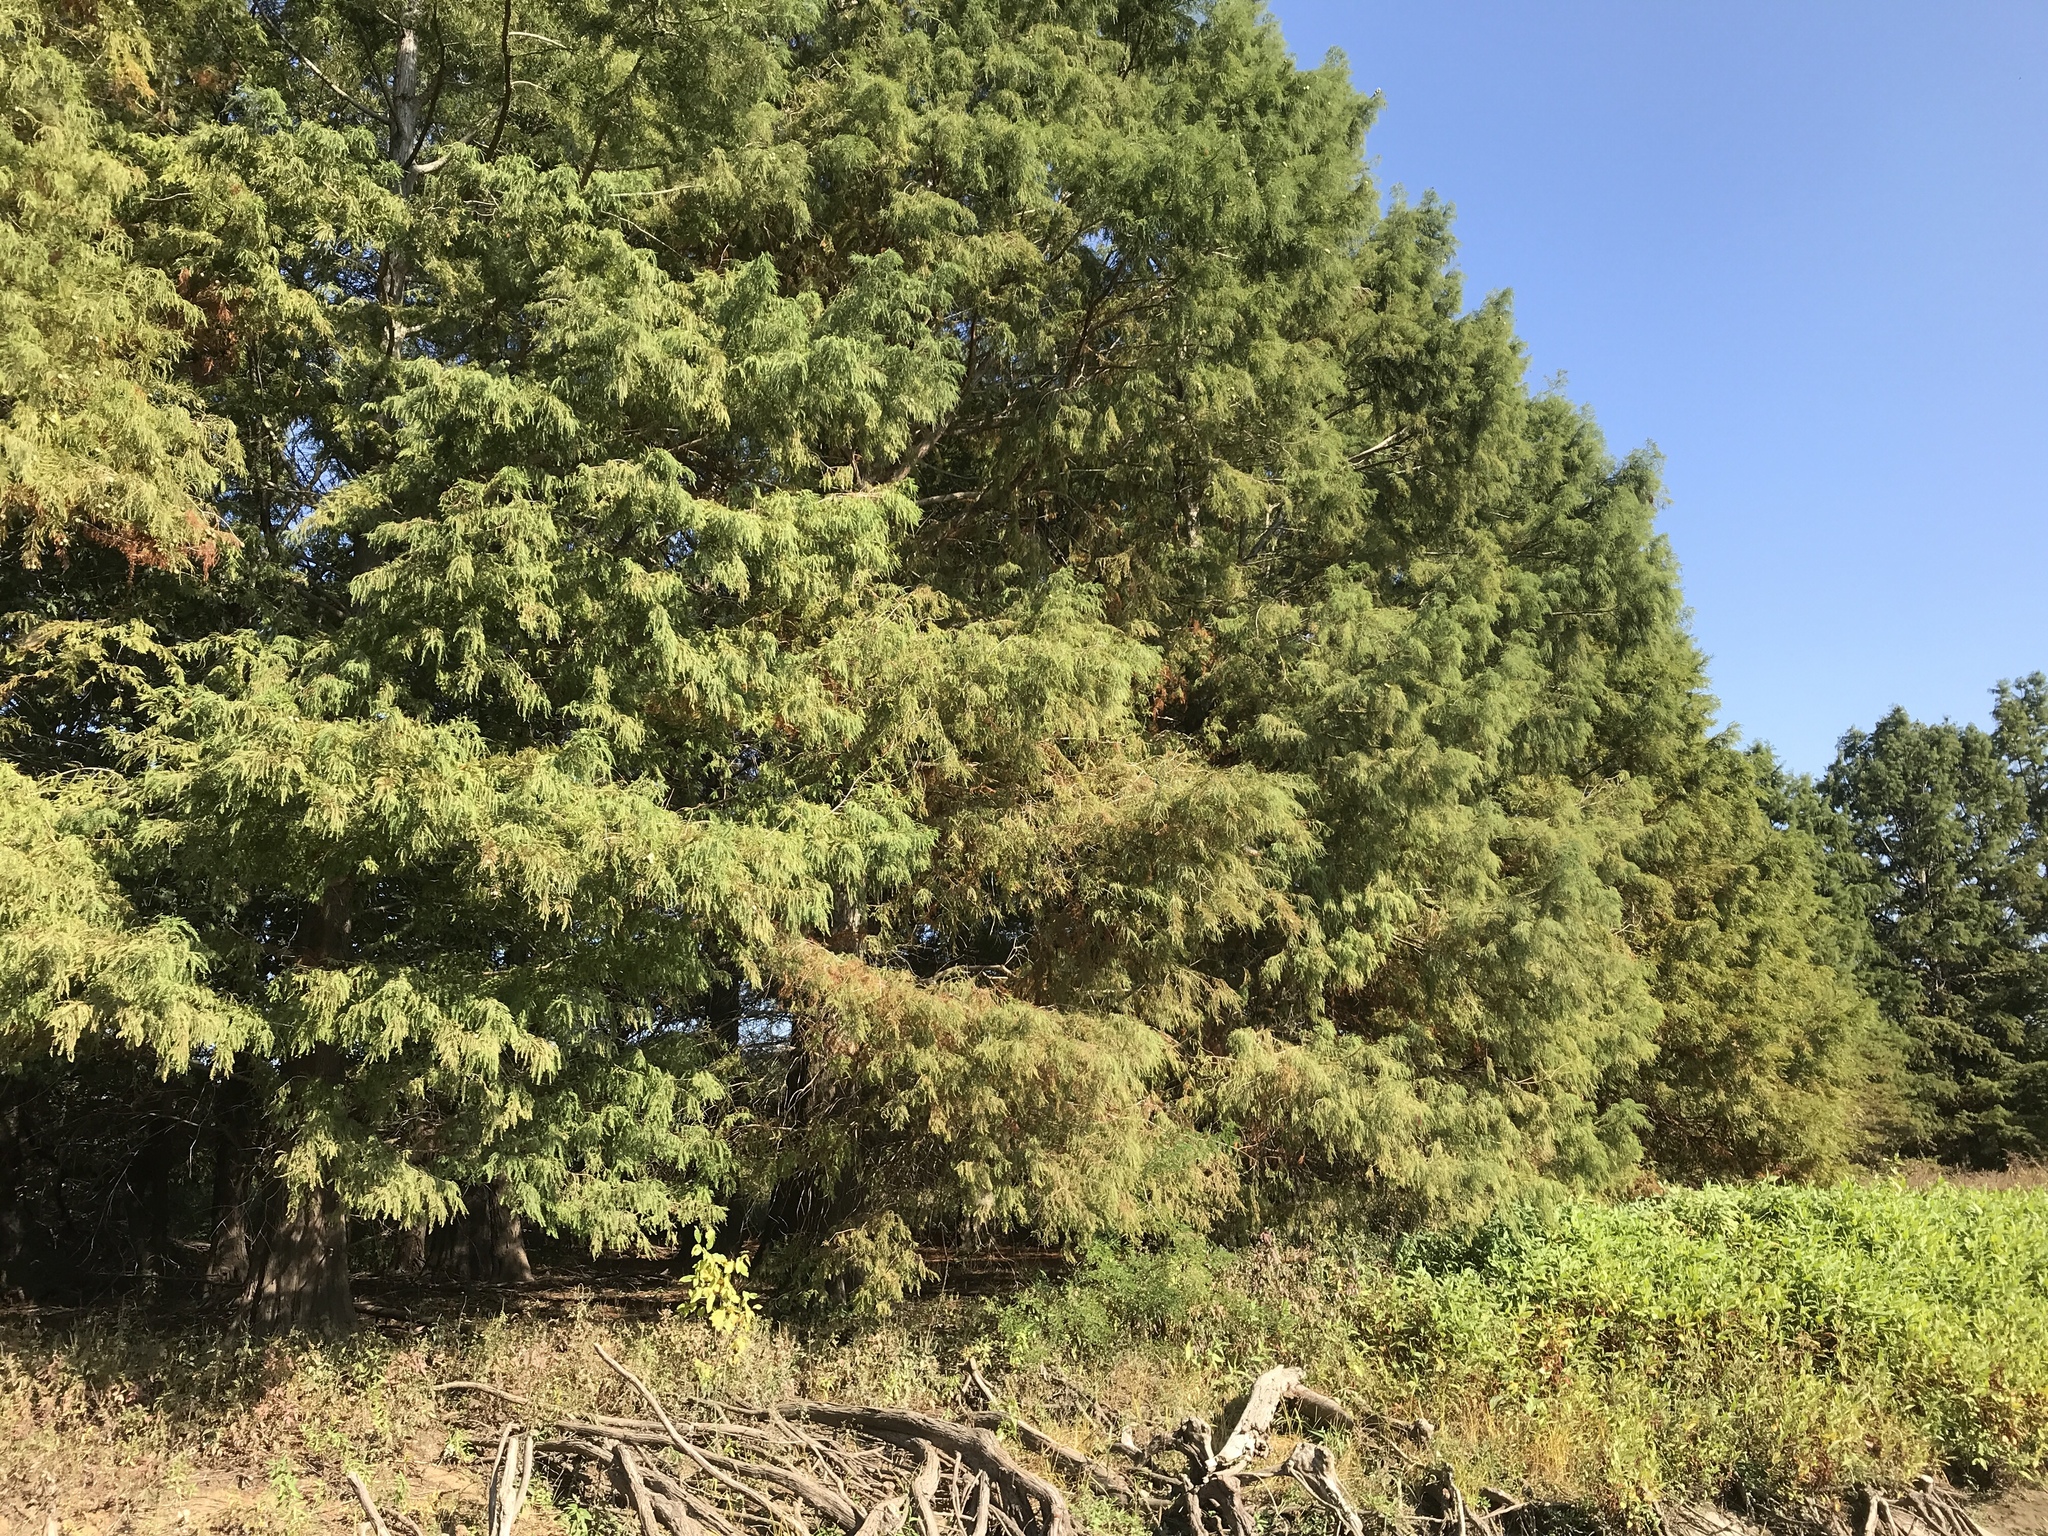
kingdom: Plantae
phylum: Tracheophyta
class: Pinopsida
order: Pinales
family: Cupressaceae
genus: Taxodium
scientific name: Taxodium distichum
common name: Bald cypress
